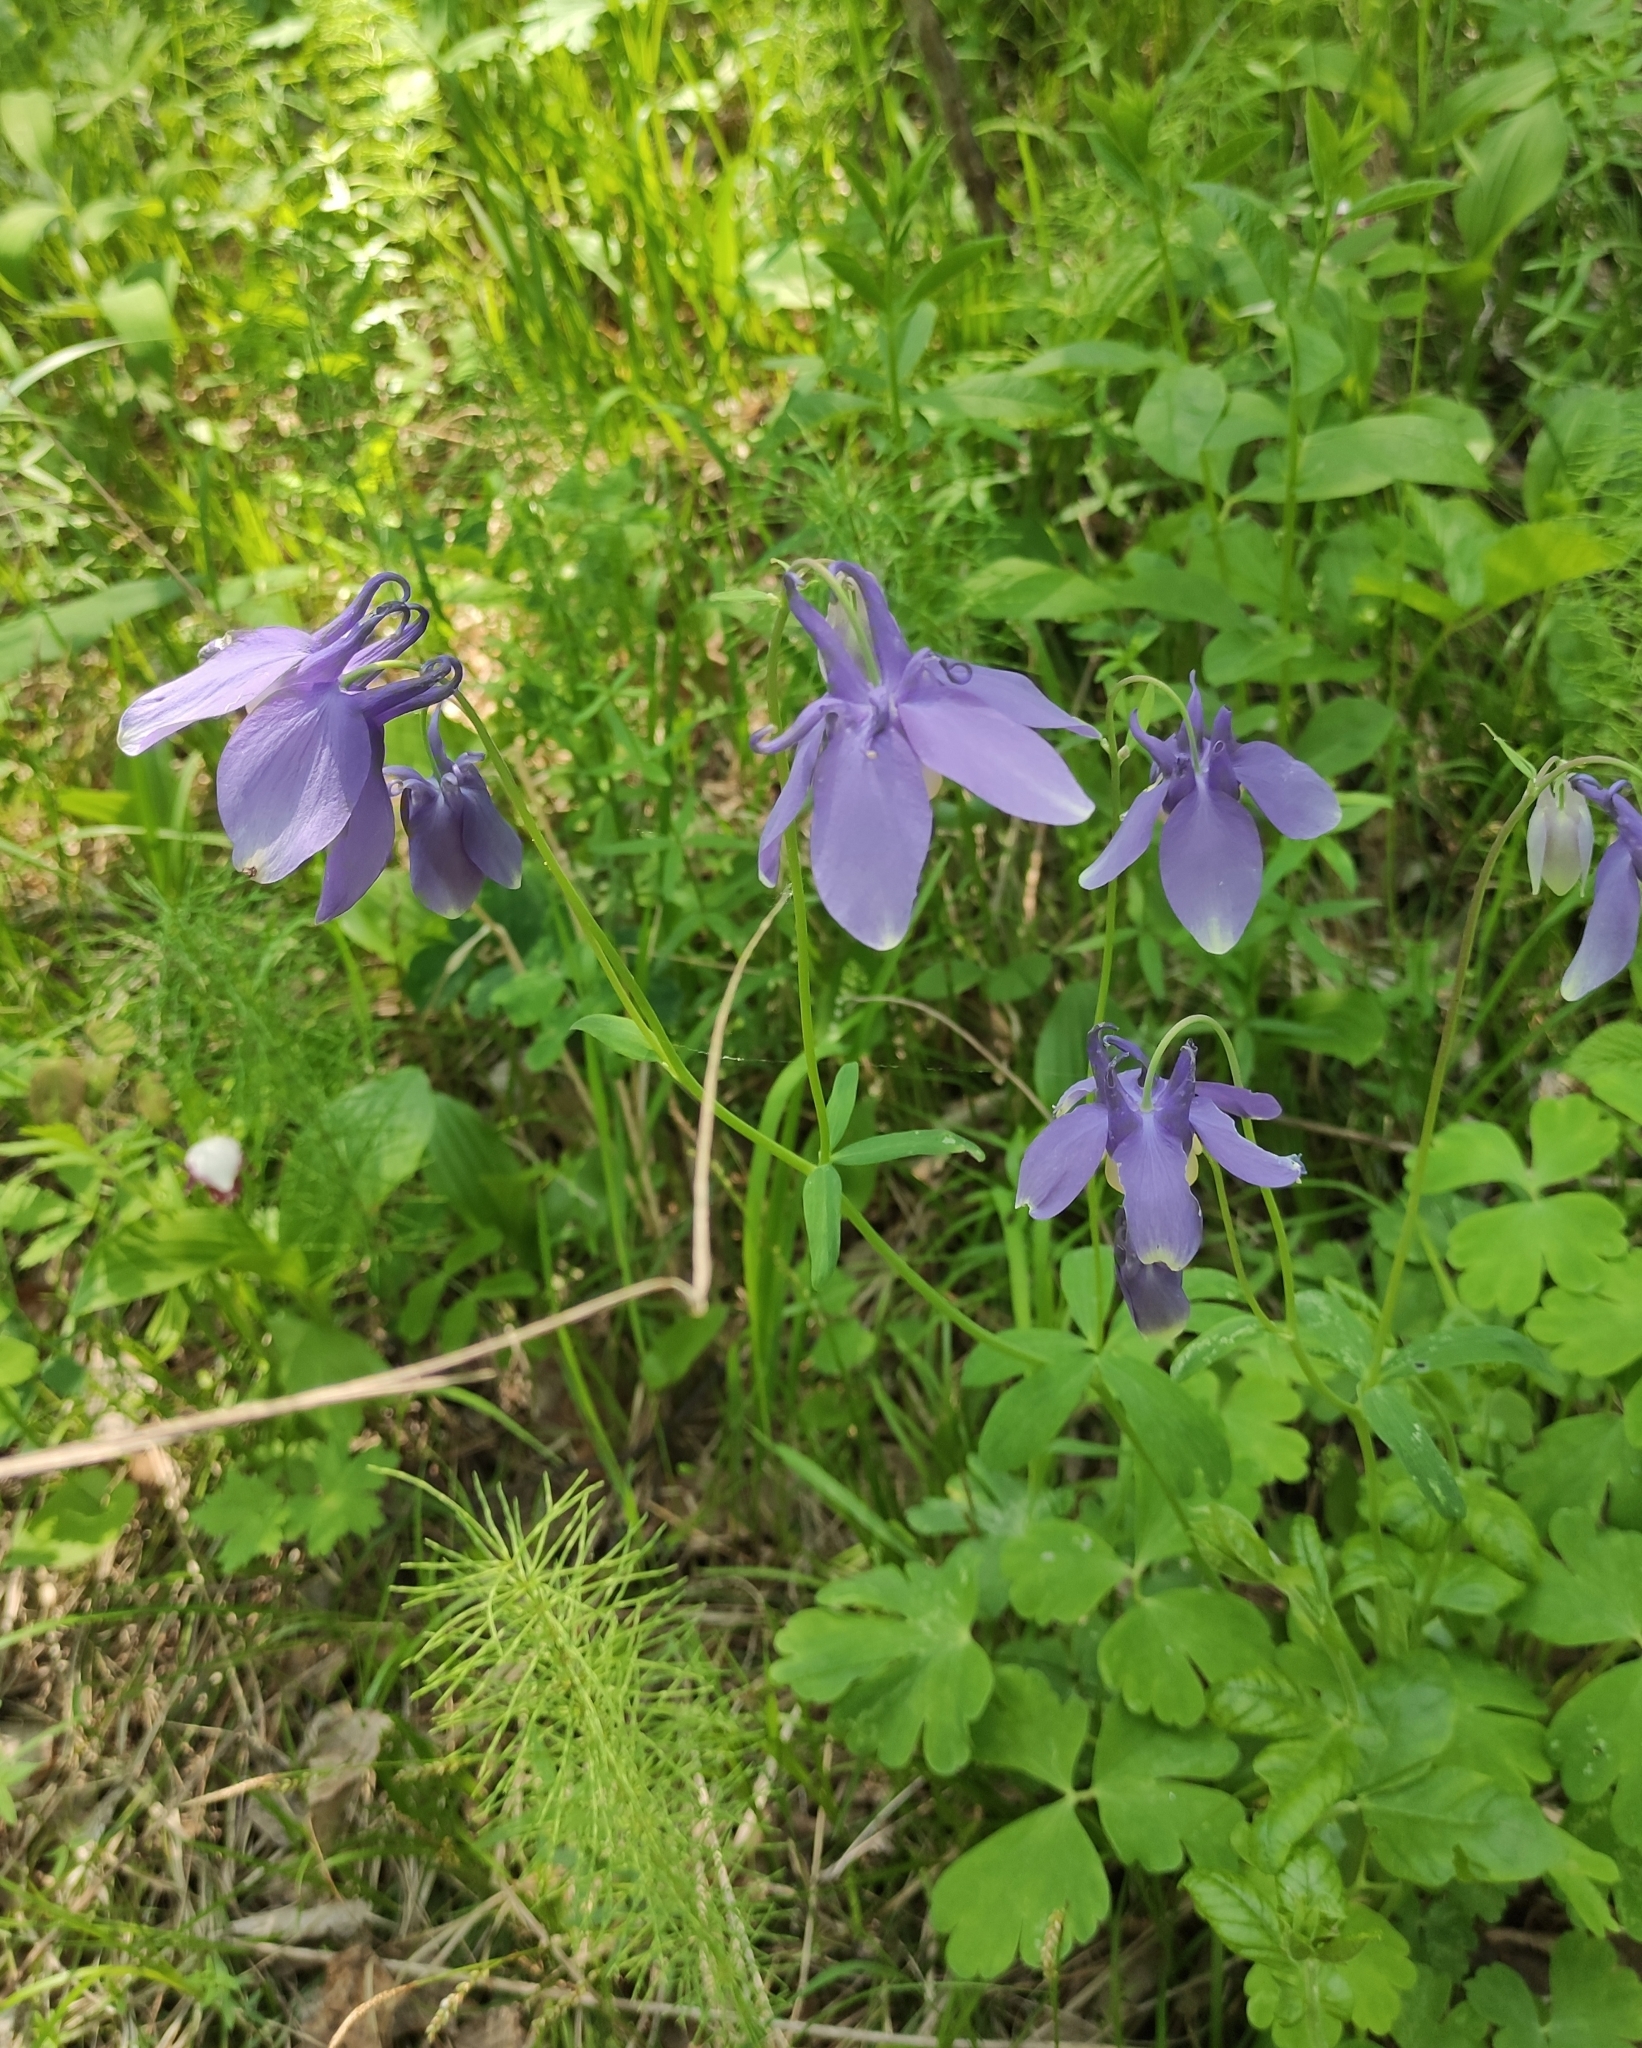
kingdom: Plantae
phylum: Tracheophyta
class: Magnoliopsida
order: Ranunculales
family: Ranunculaceae
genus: Aquilegia
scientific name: Aquilegia sibirica
